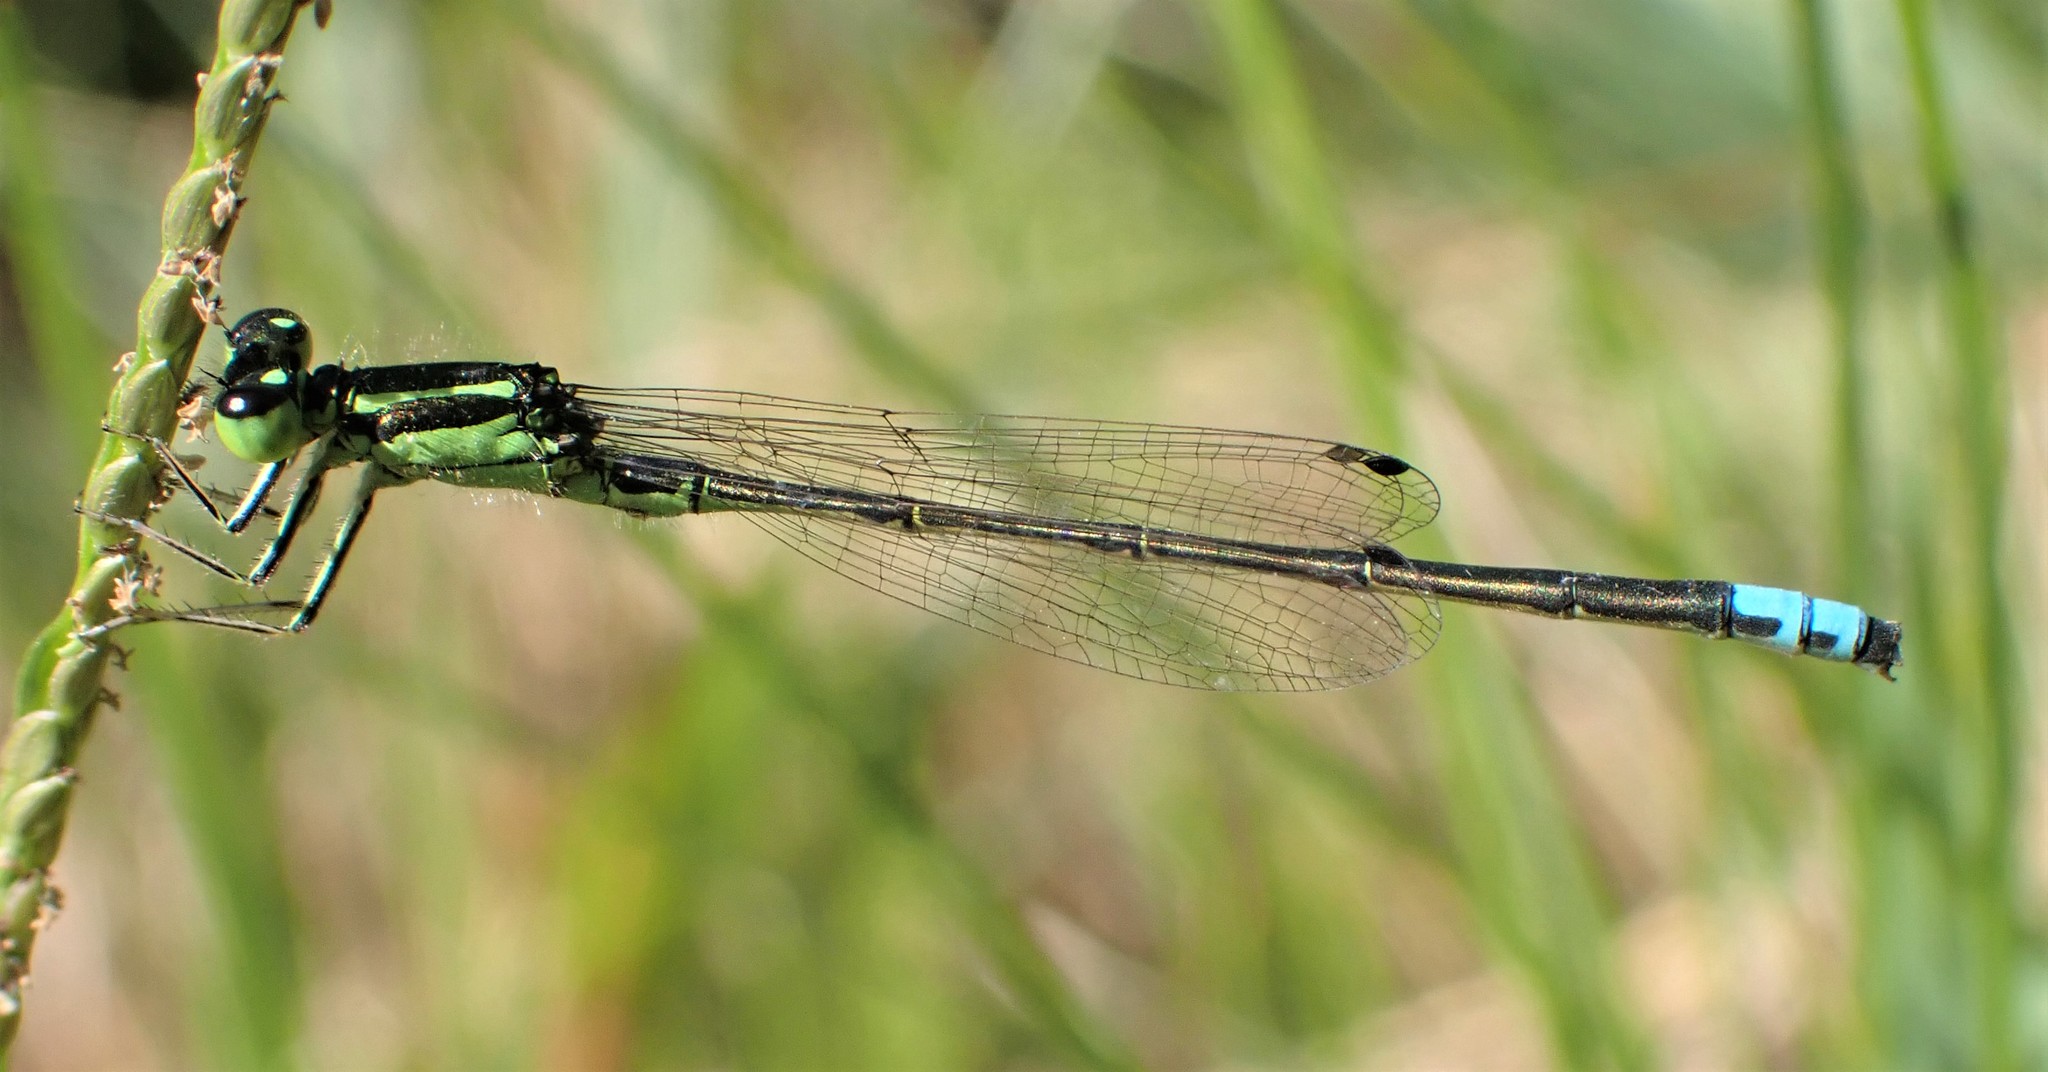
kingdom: Animalia
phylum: Arthropoda
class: Insecta
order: Odonata
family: Coenagrionidae
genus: Ischnura
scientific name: Ischnura verticalis
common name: Eastern forktail
